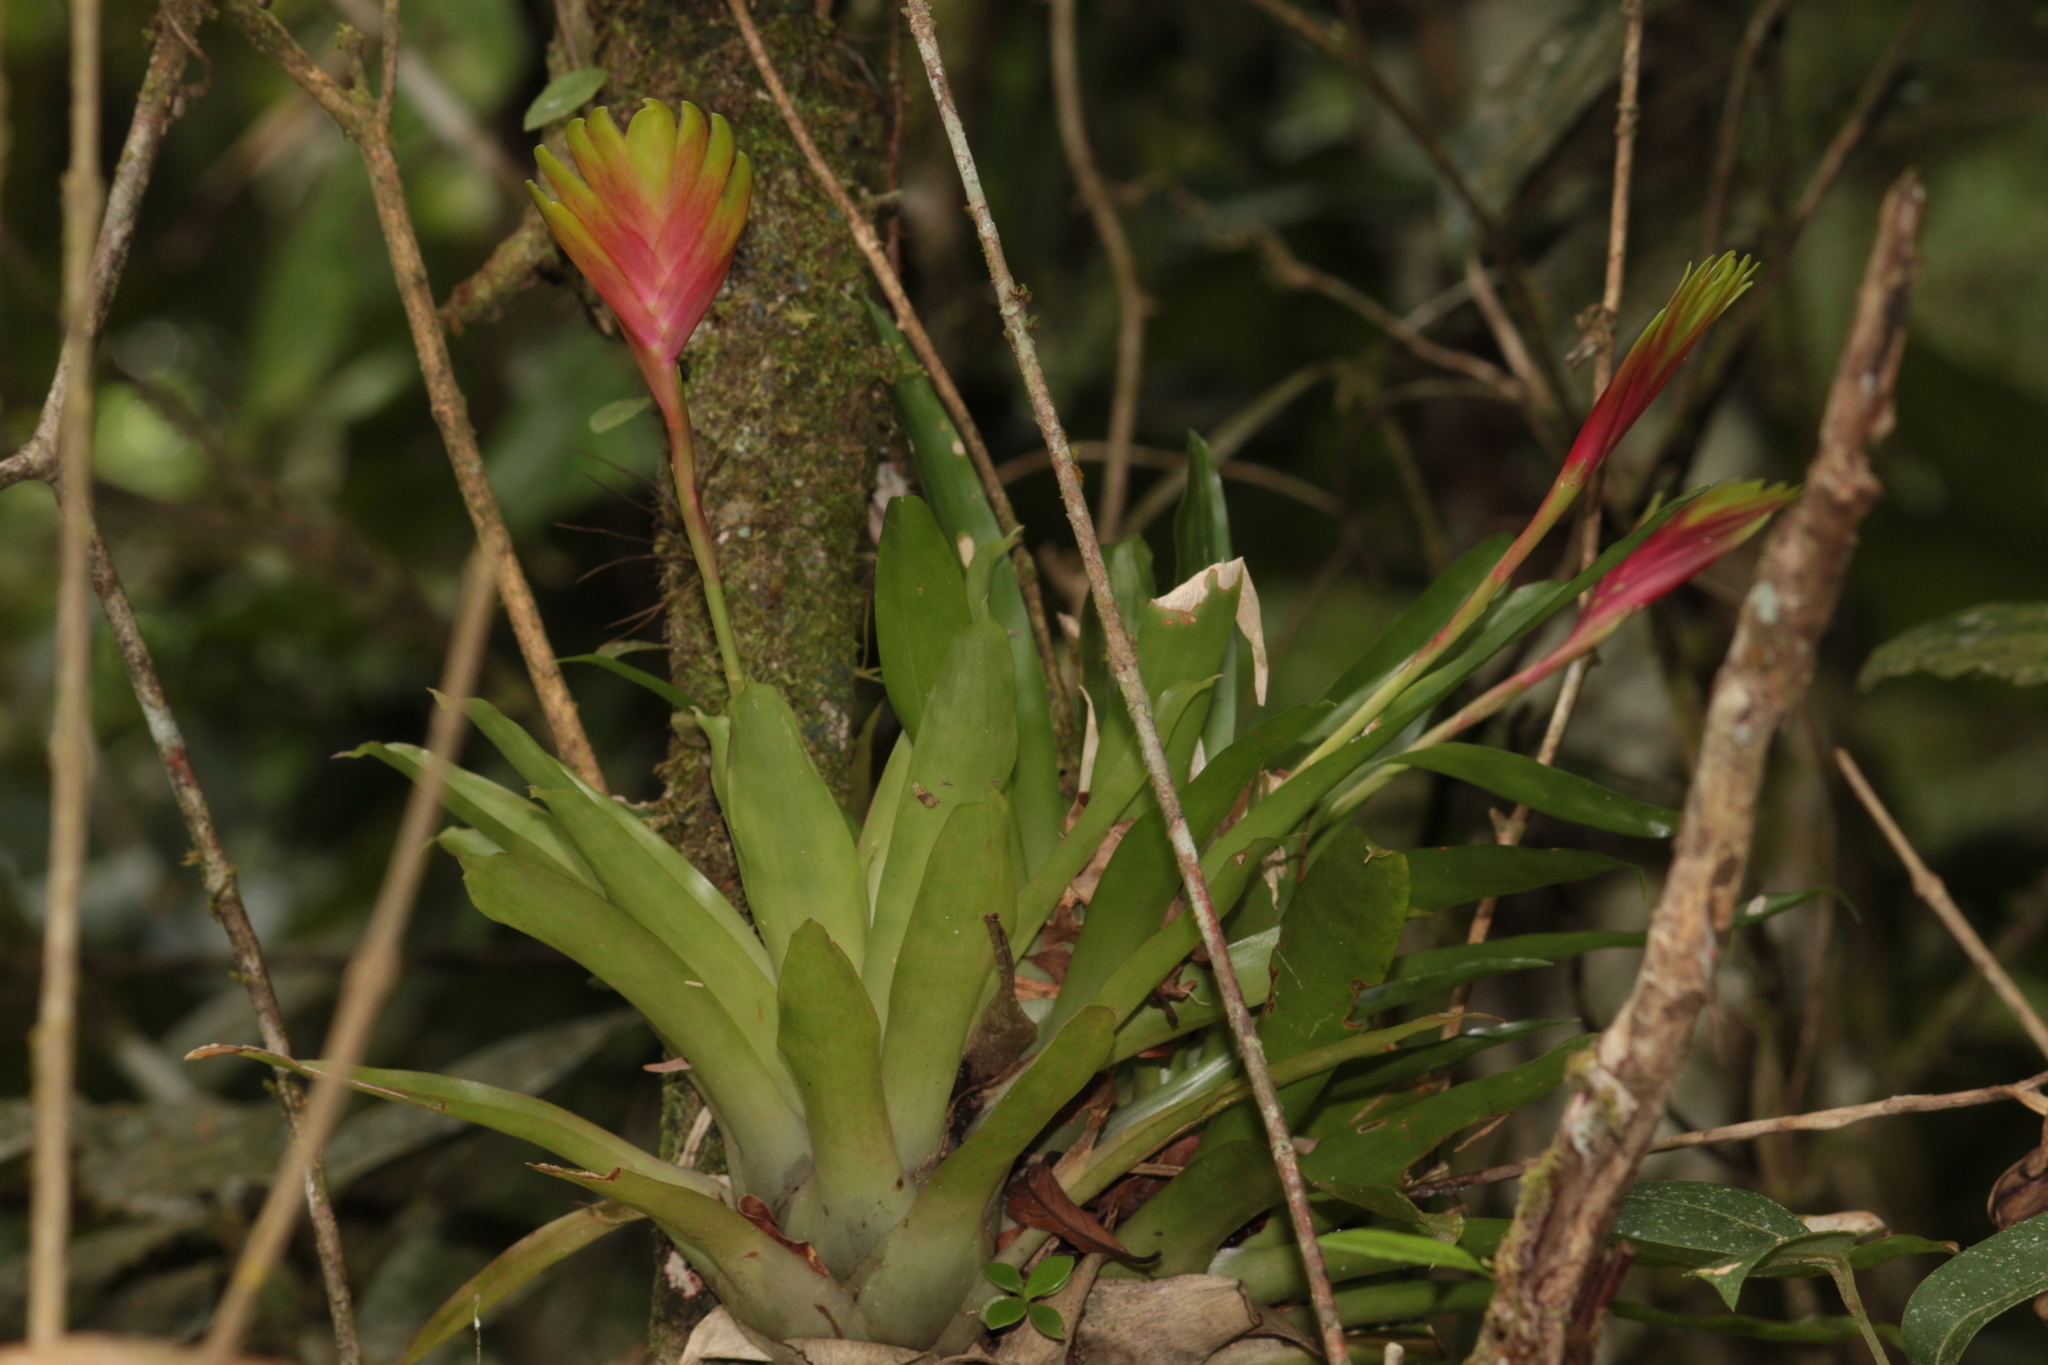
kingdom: Plantae
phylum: Tracheophyta
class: Liliopsida
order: Poales
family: Bromeliaceae
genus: Vriesea
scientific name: Vriesea carinata
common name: Lobster-claws
